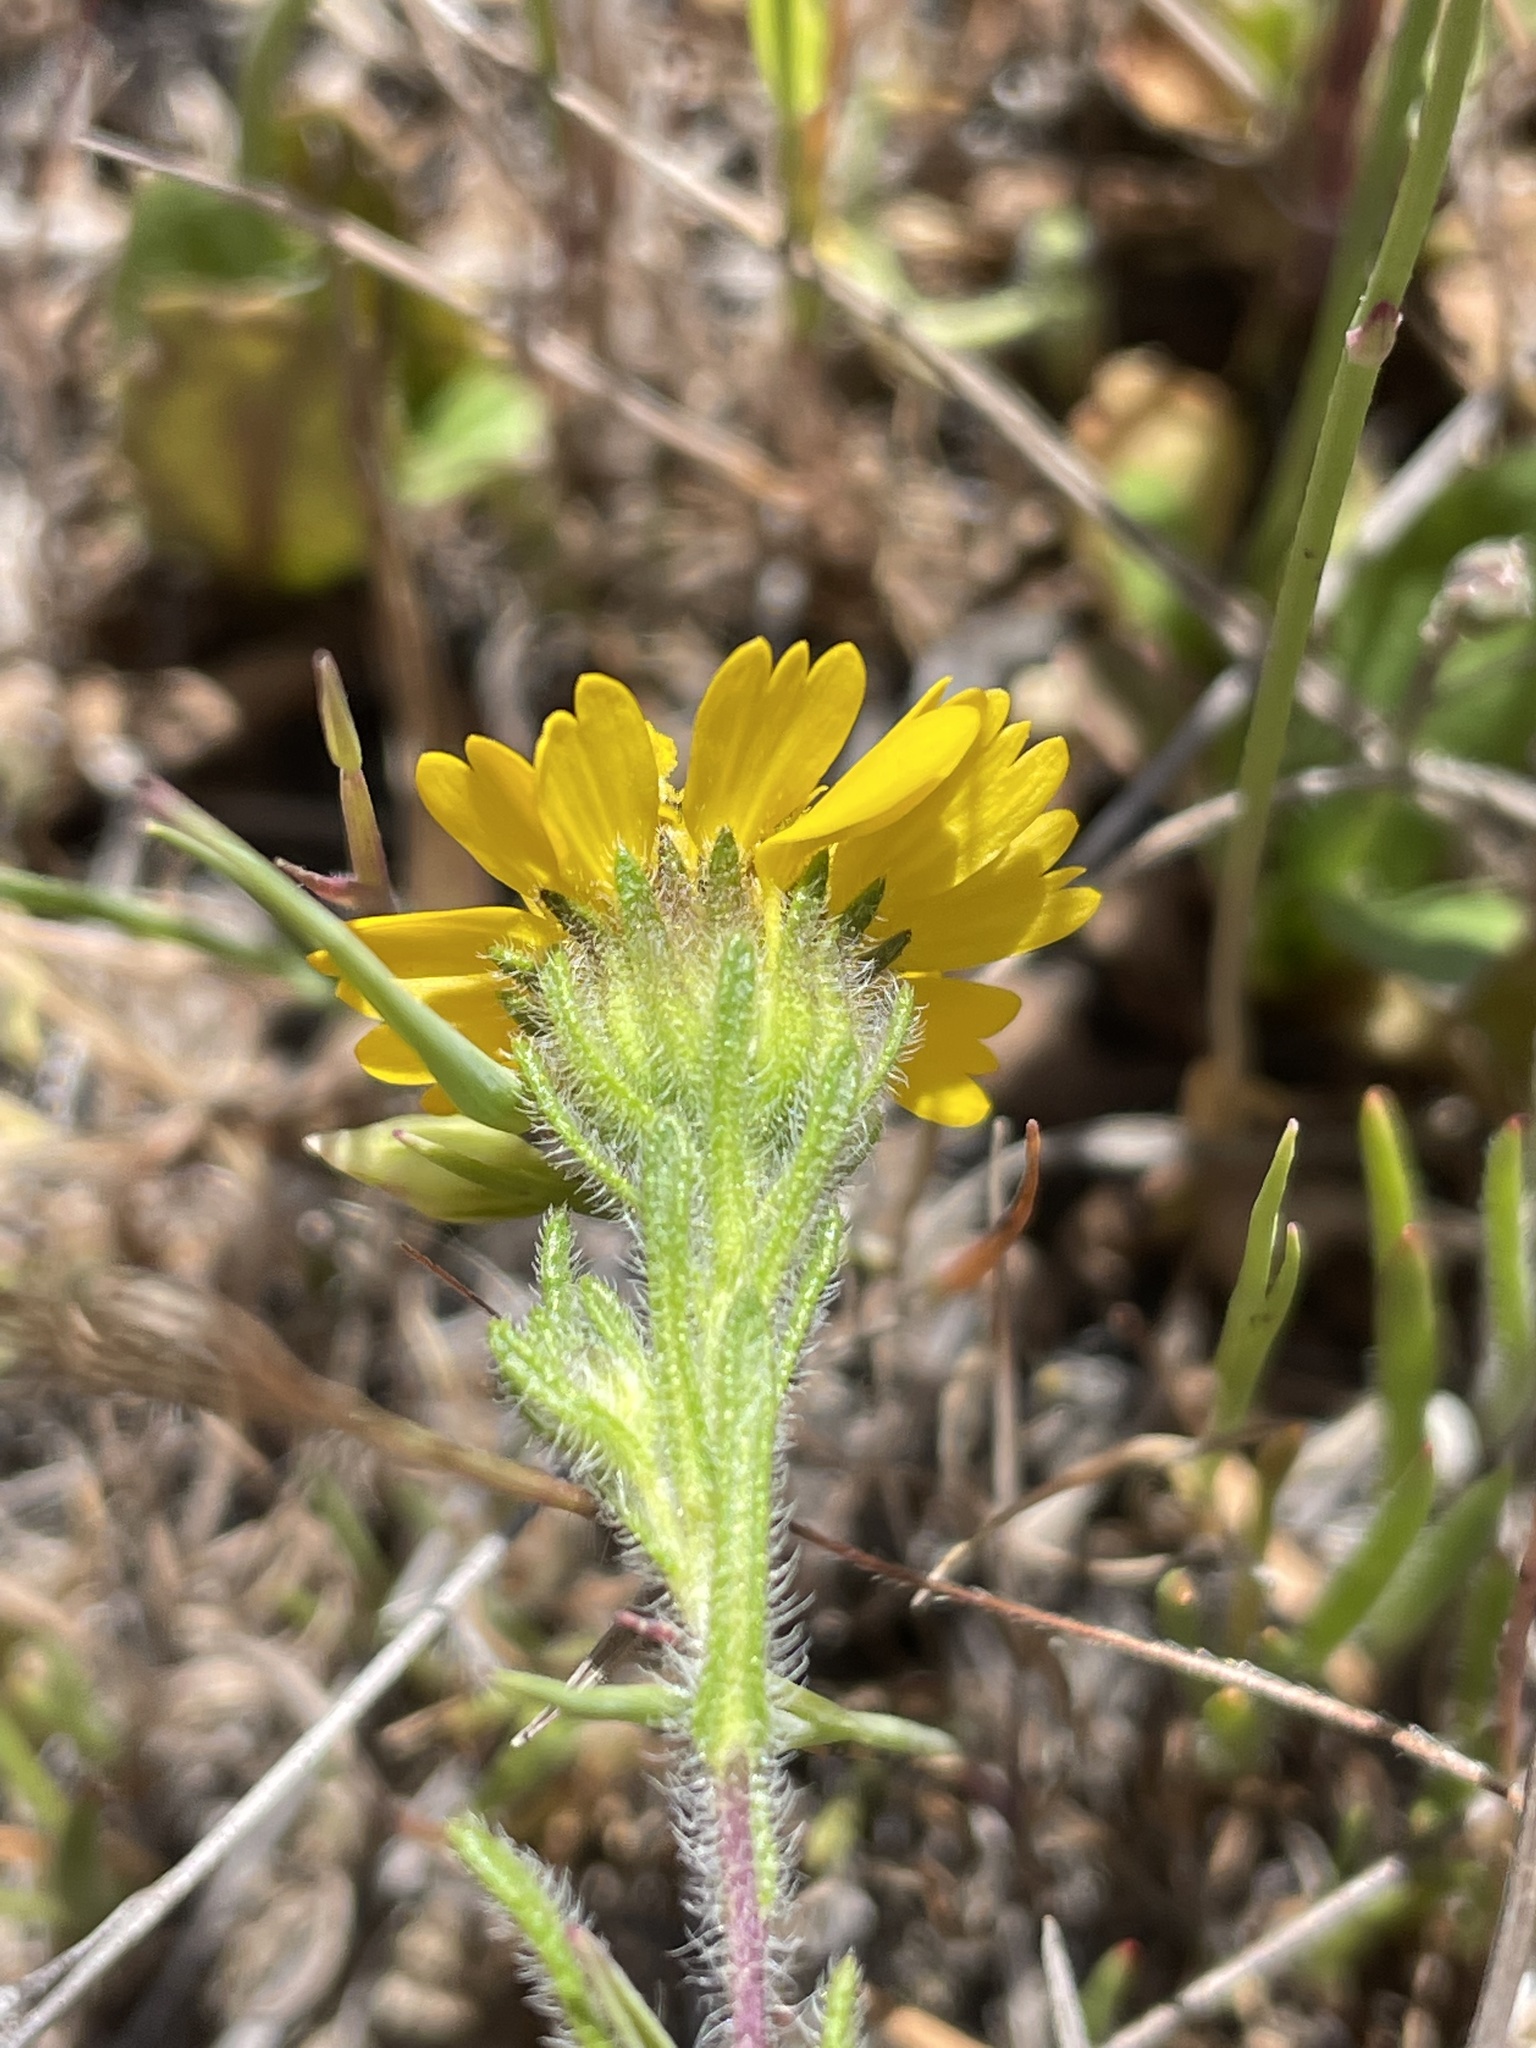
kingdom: Plantae
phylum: Tracheophyta
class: Magnoliopsida
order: Asterales
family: Asteraceae
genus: Deinandra
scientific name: Deinandra corymbosa
